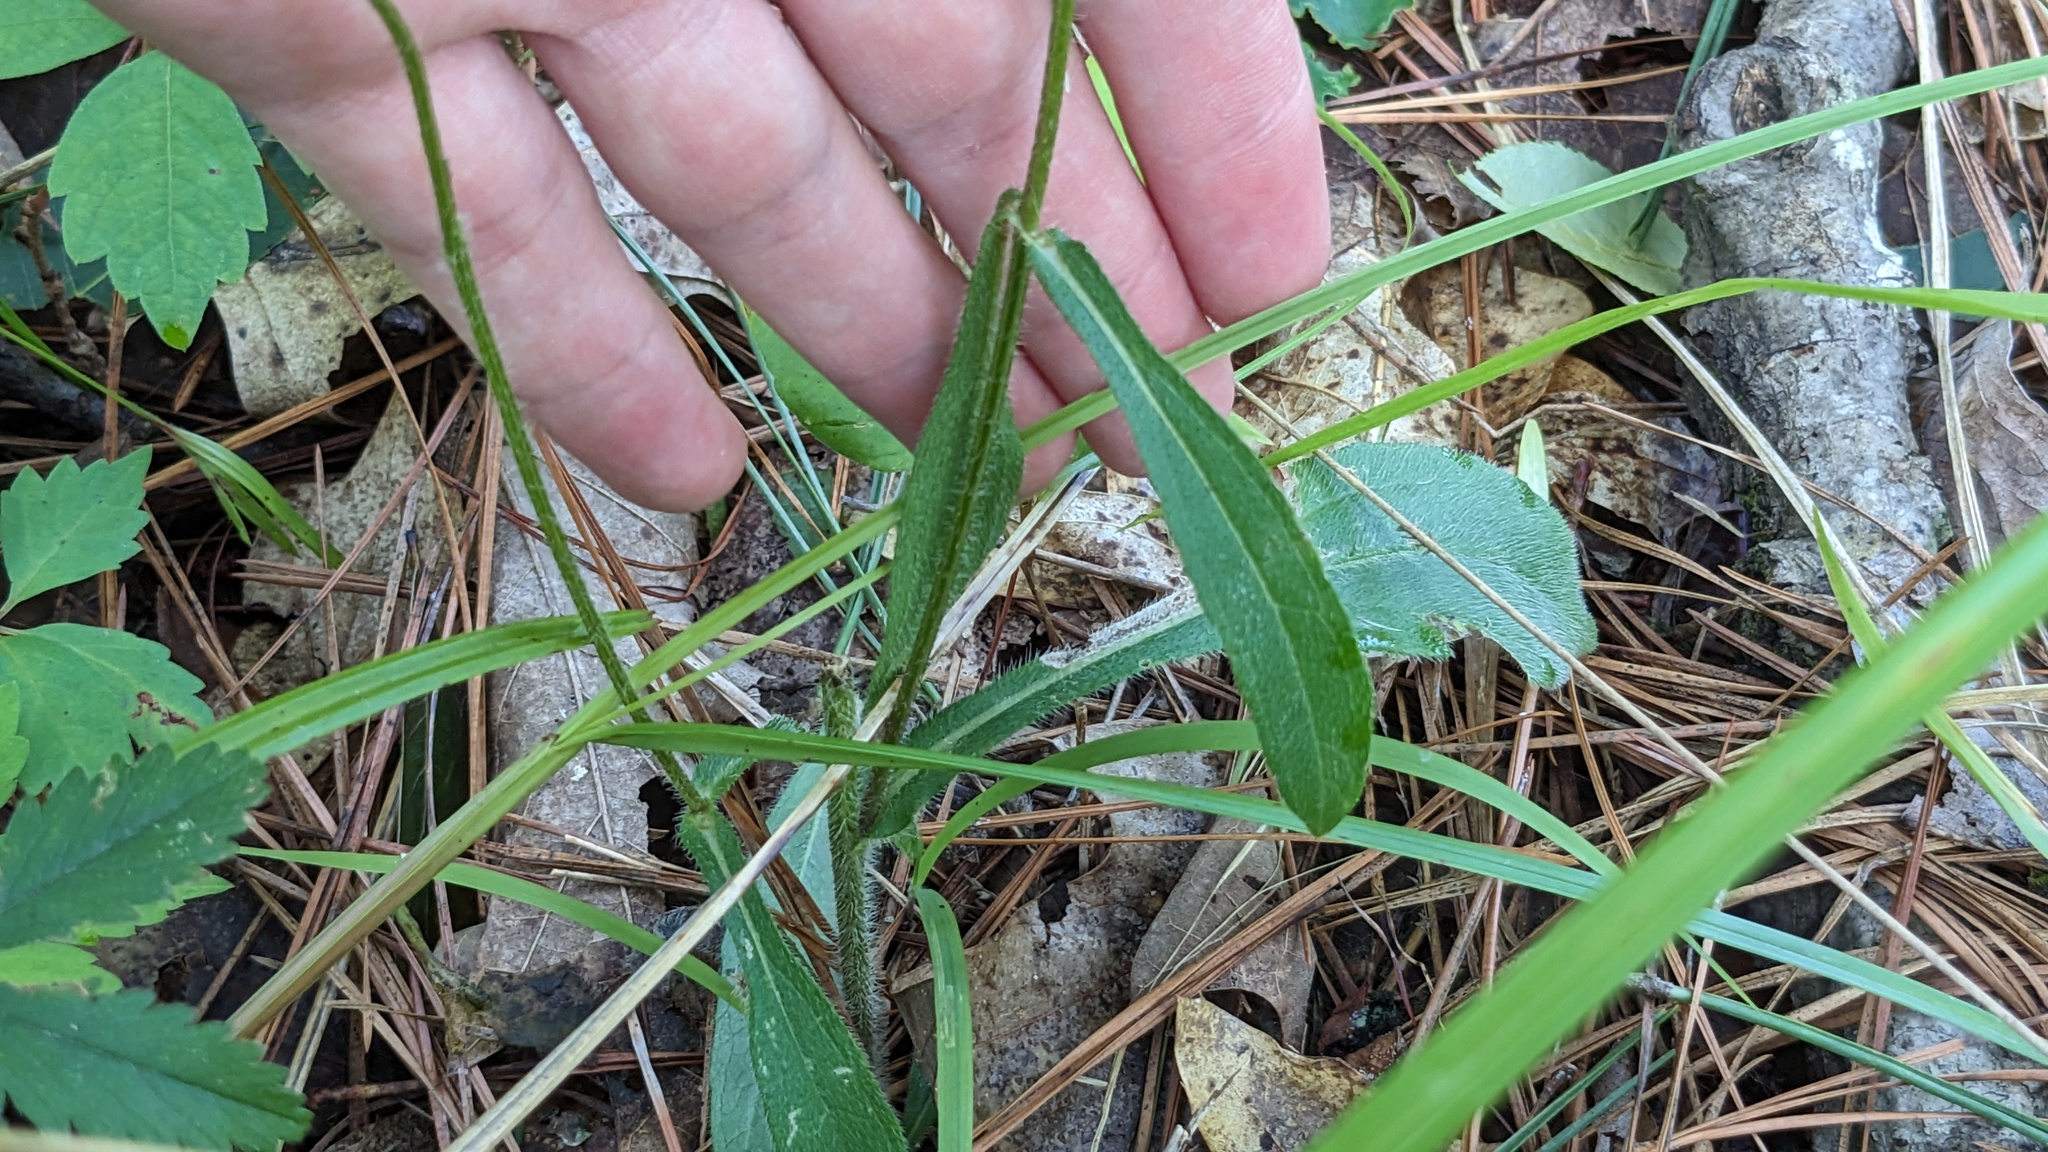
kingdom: Plantae
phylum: Tracheophyta
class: Magnoliopsida
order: Asterales
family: Asteraceae
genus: Rudbeckia
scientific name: Rudbeckia hirta
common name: Black-eyed-susan
